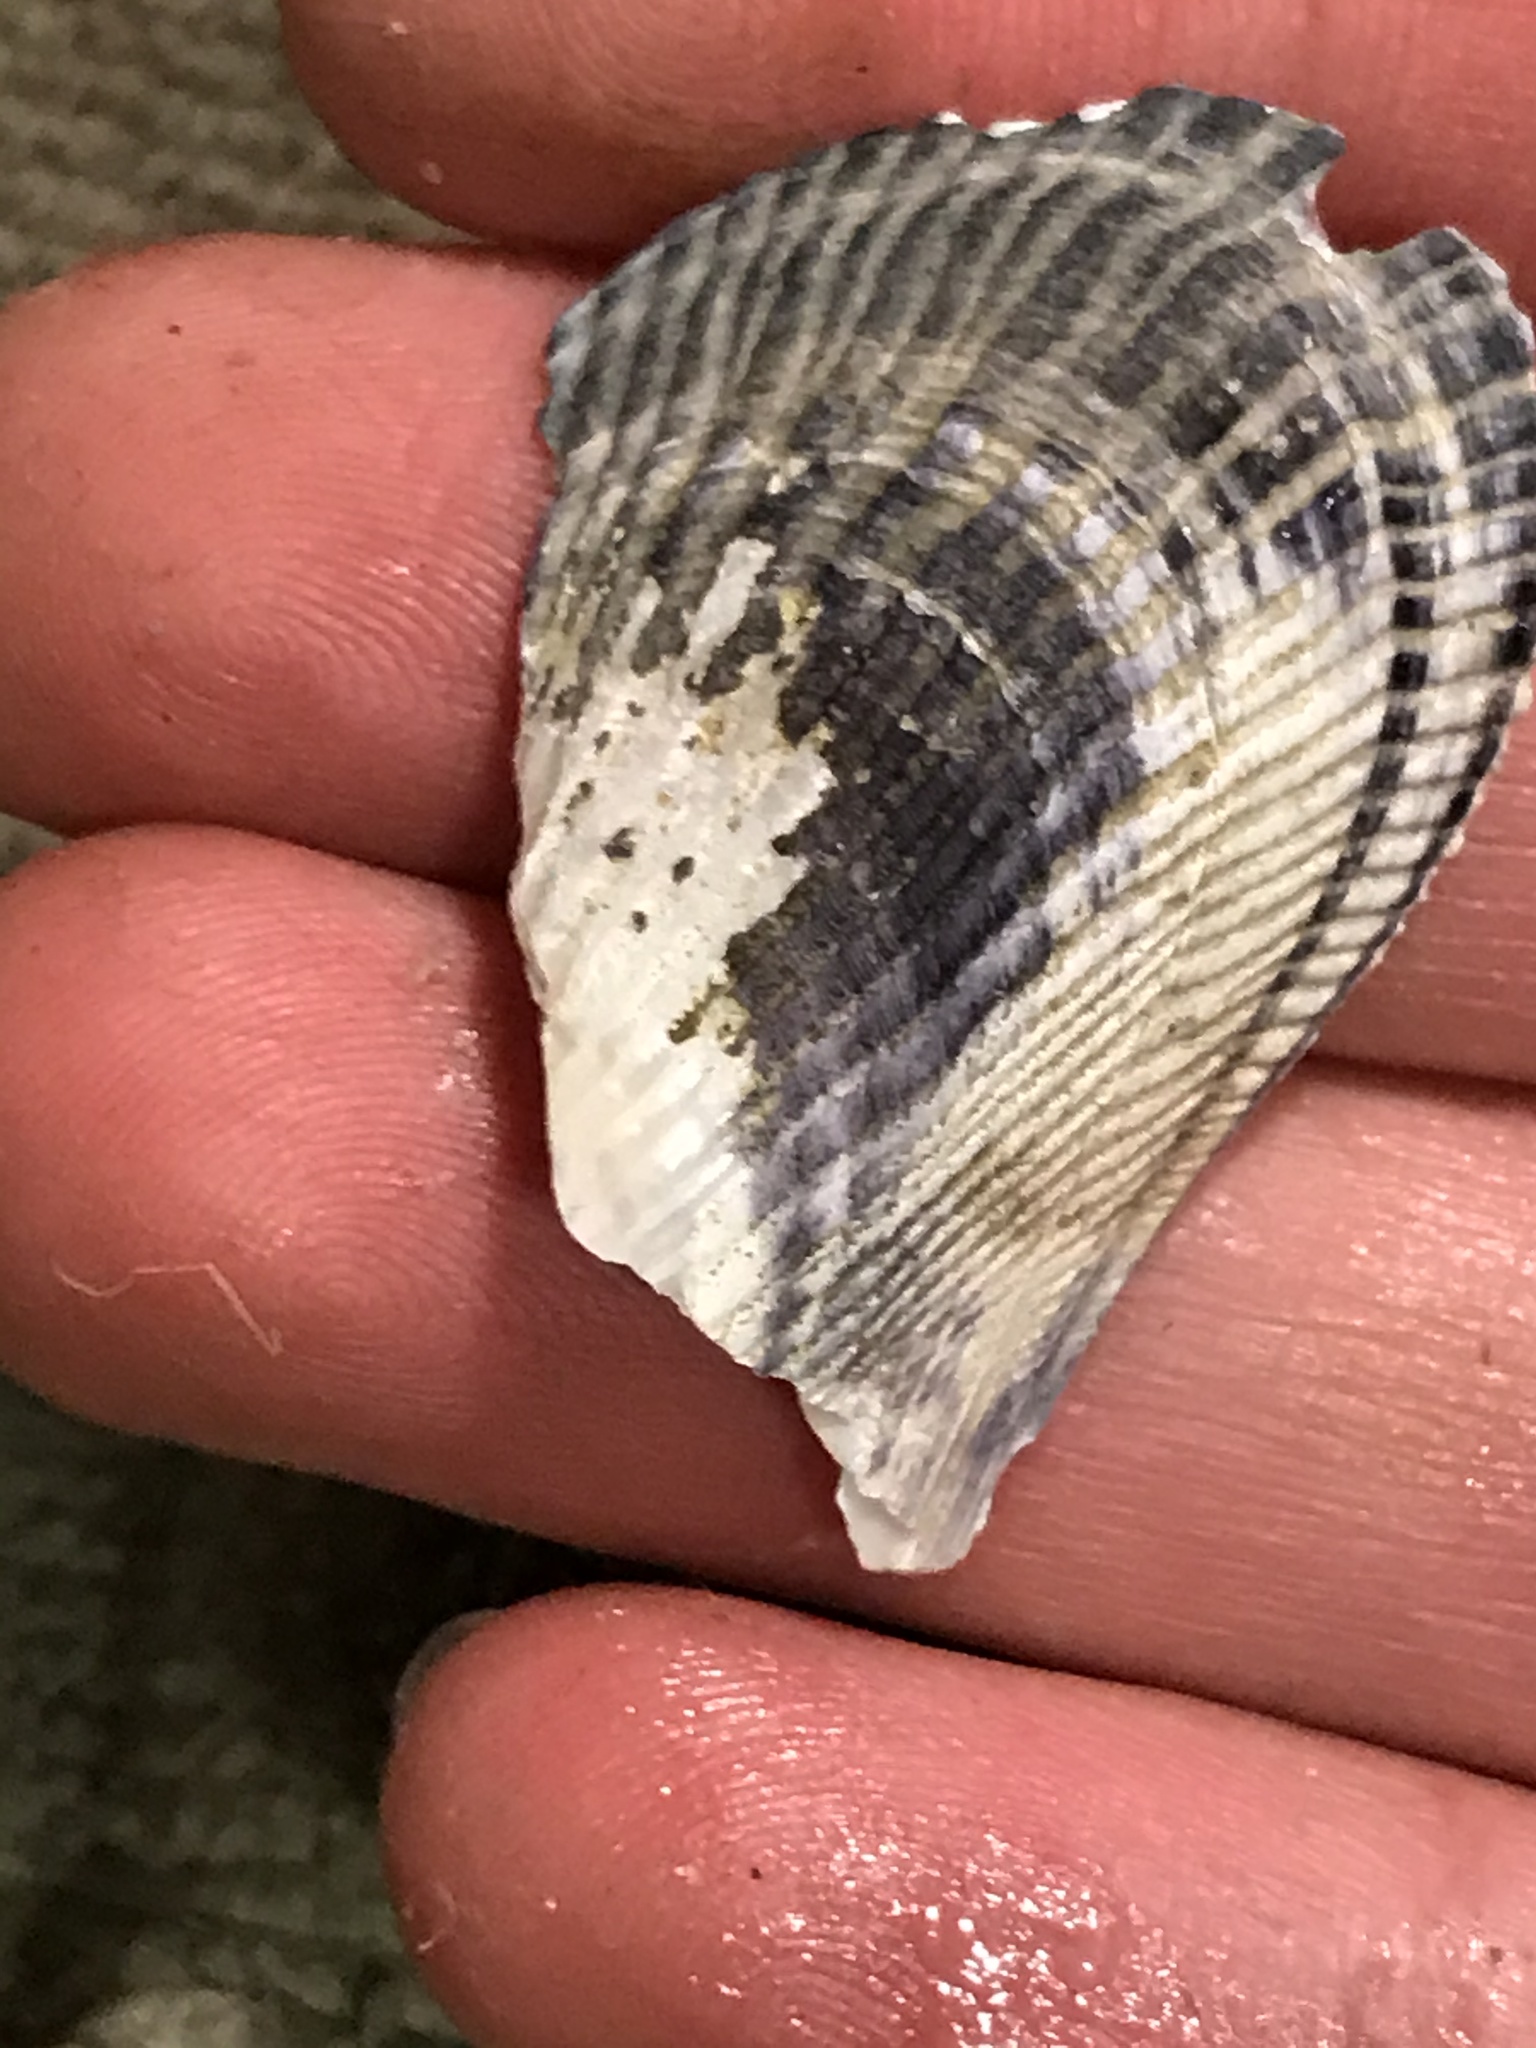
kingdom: Animalia
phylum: Mollusca
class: Bivalvia
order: Mytilida
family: Mytilidae
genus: Geukensia
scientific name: Geukensia demissa
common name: Ribbed mussel
